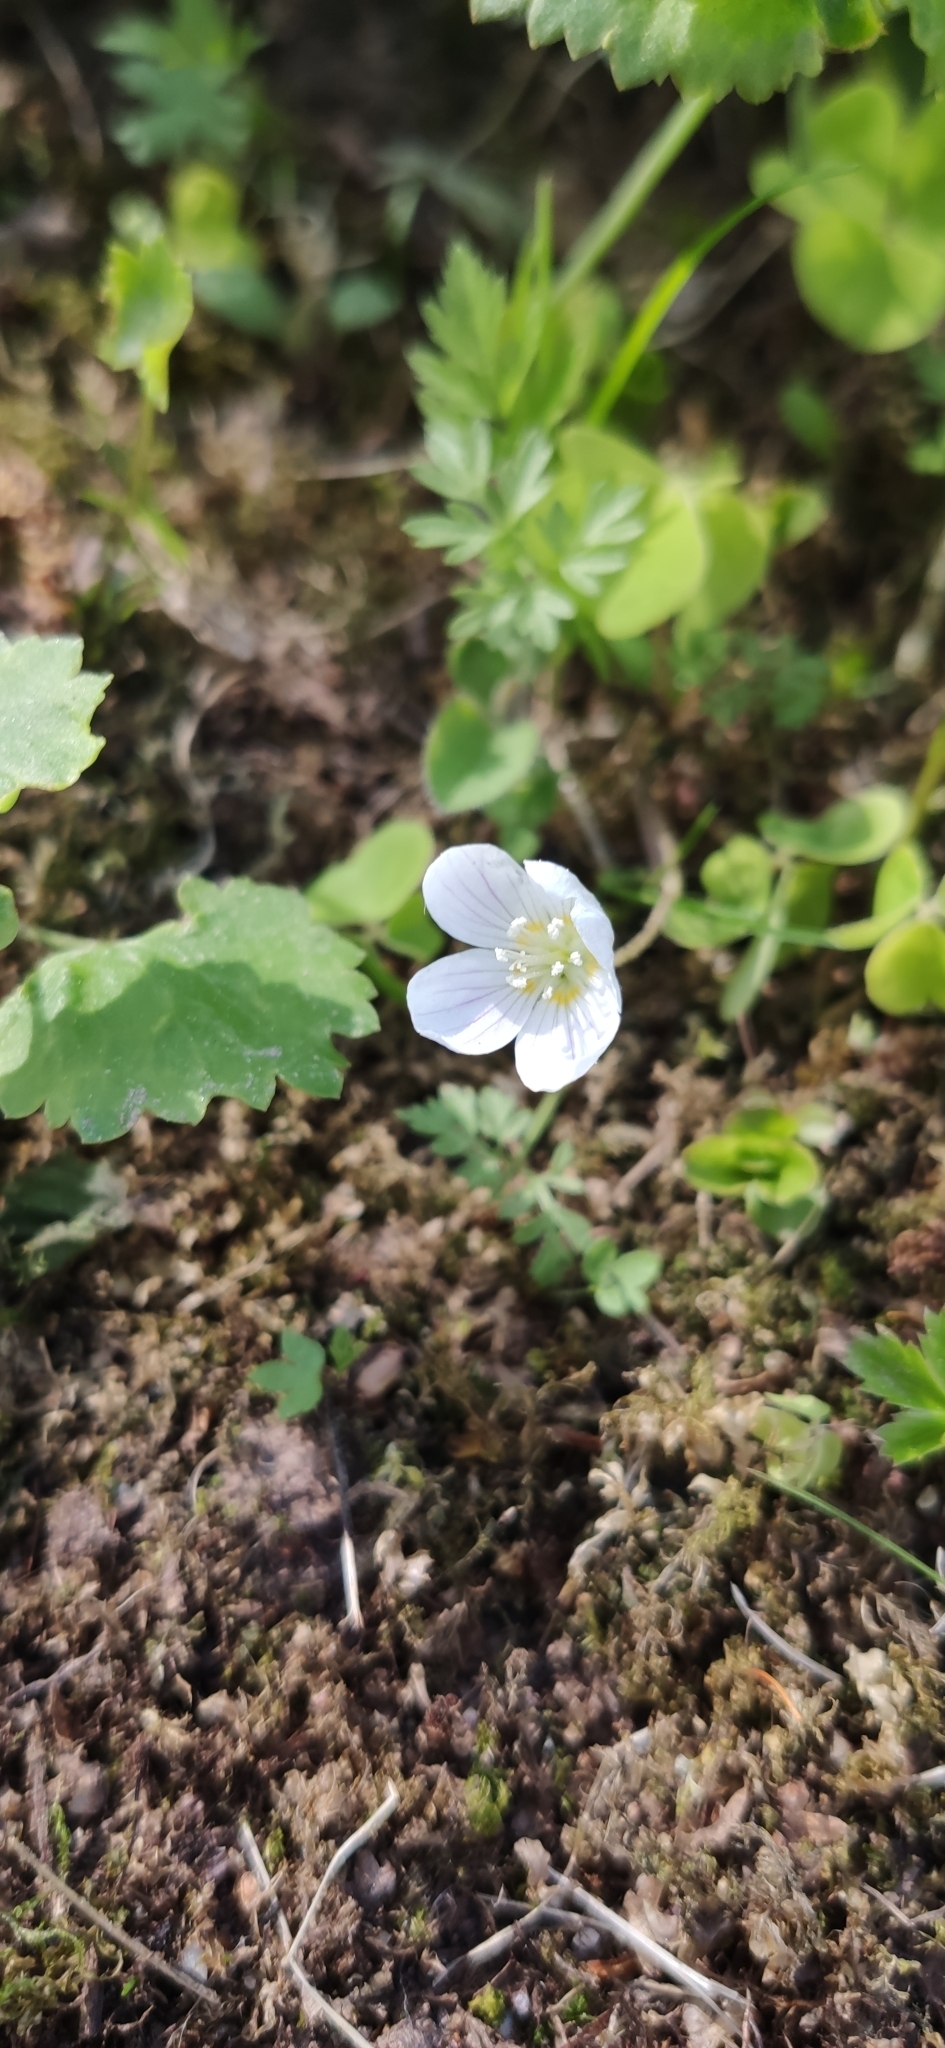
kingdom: Plantae
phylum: Tracheophyta
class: Magnoliopsida
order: Oxalidales
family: Oxalidaceae
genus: Oxalis
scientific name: Oxalis acetosella
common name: Wood-sorrel
